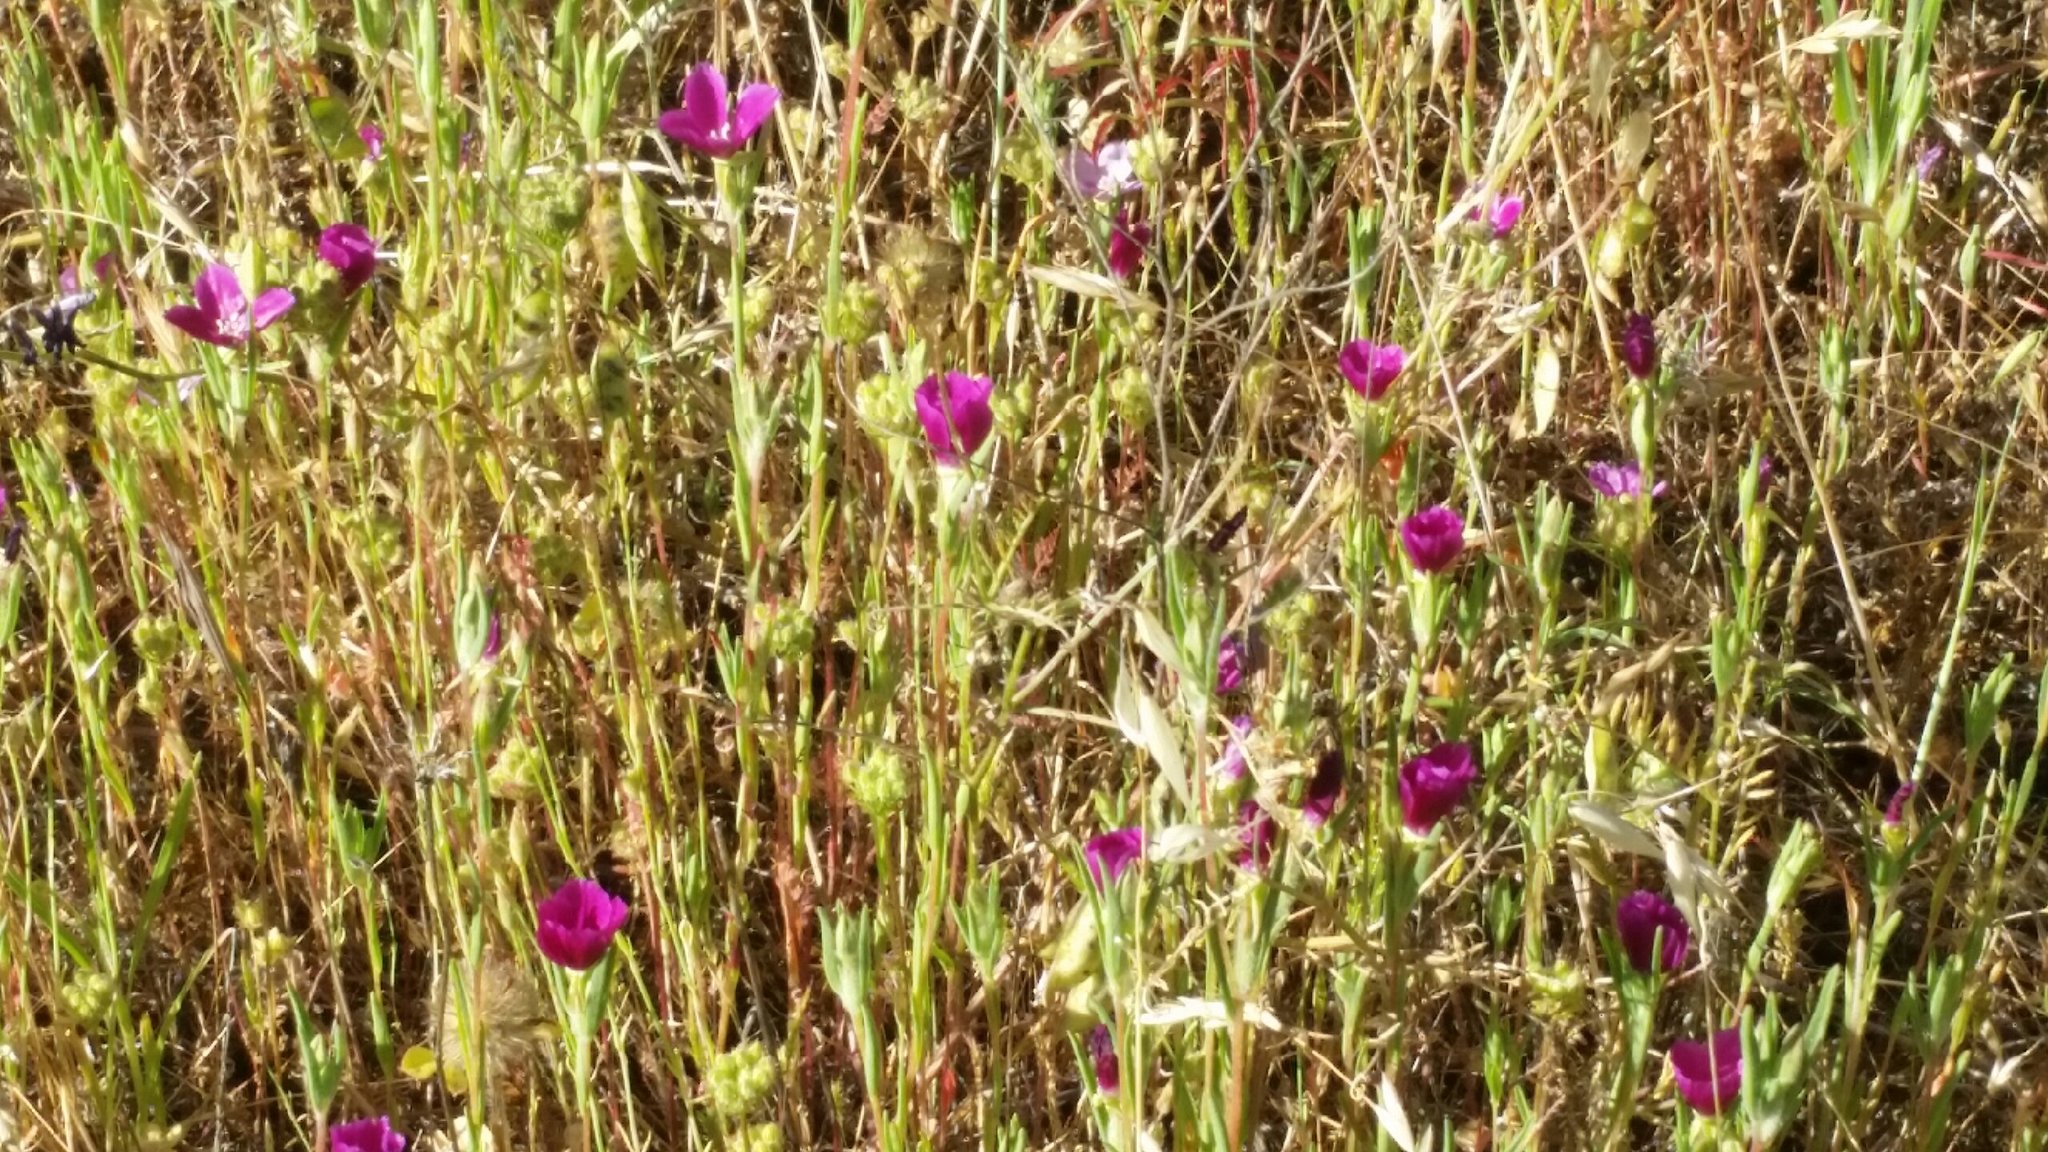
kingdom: Plantae
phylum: Tracheophyta
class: Magnoliopsida
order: Myrtales
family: Onagraceae
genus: Clarkia
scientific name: Clarkia purpurea
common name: Purple clarkia
